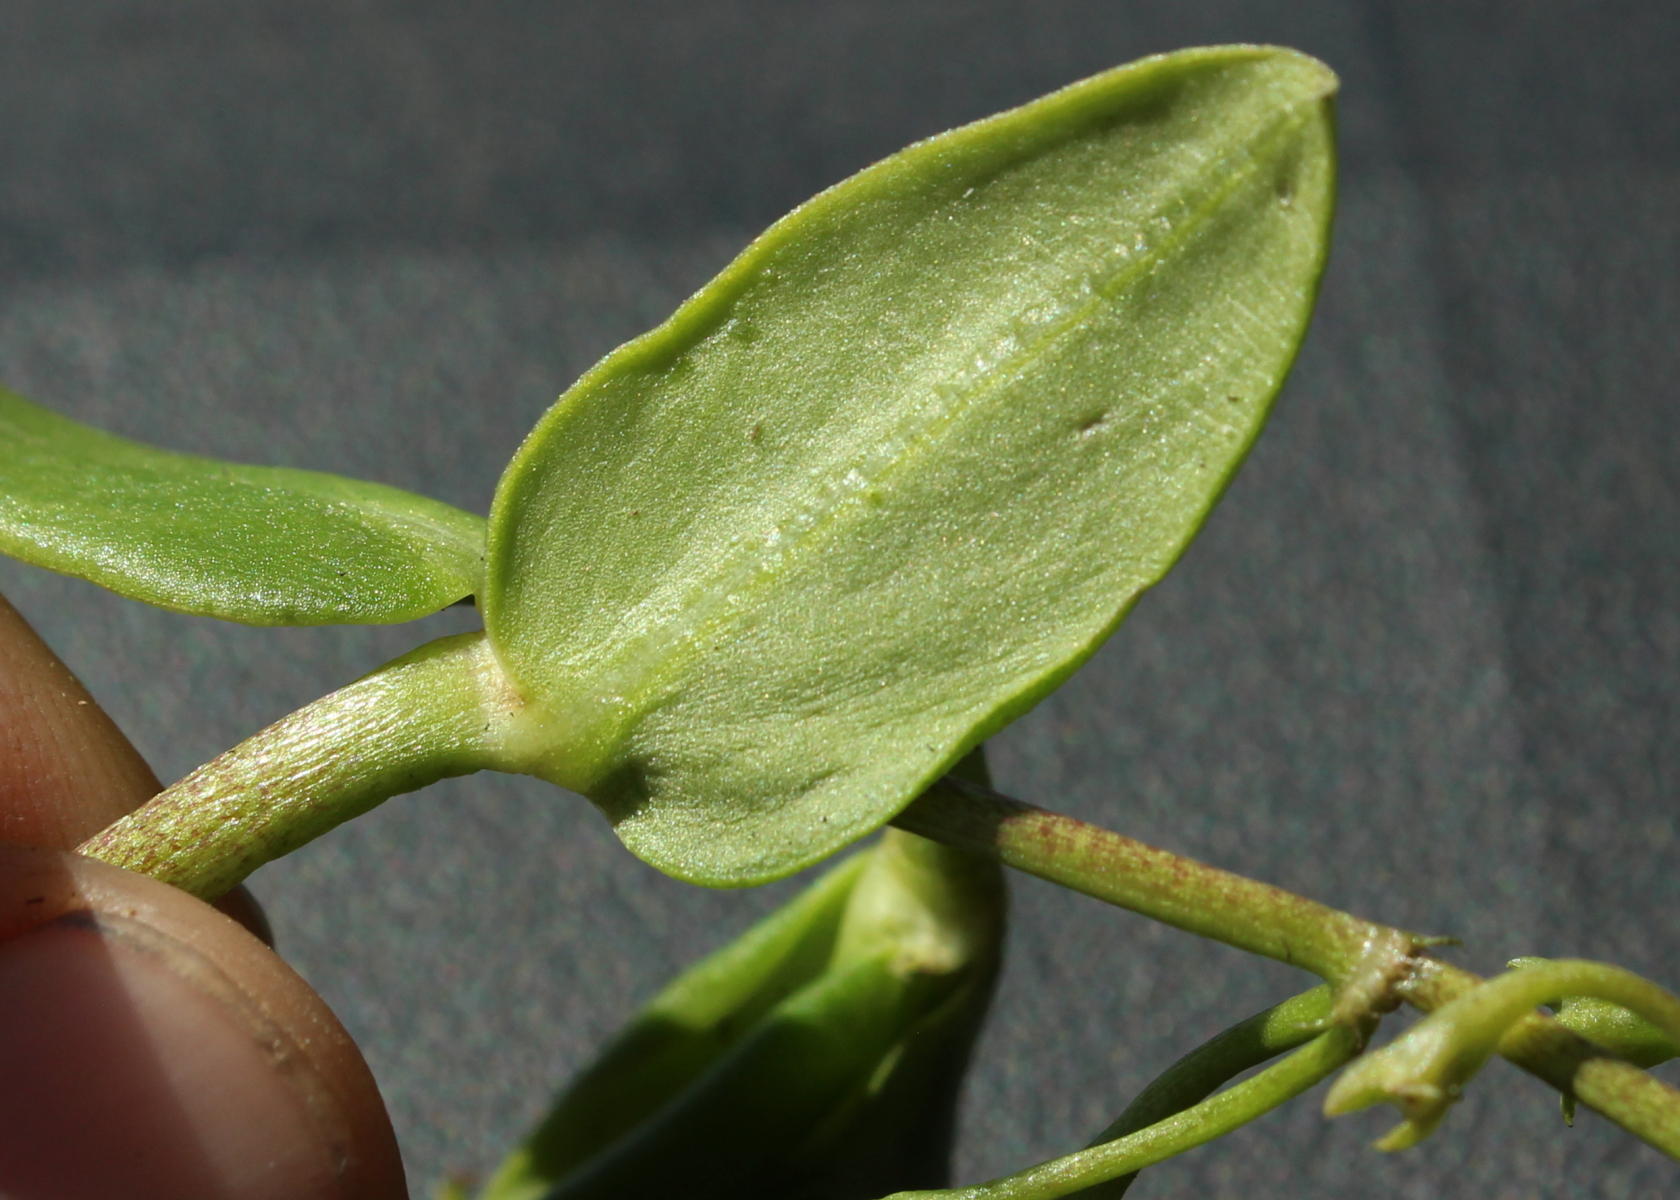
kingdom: Plantae
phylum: Tracheophyta
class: Magnoliopsida
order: Gentianales
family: Rubiaceae
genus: Pentodon
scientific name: Pentodon pentandrus
